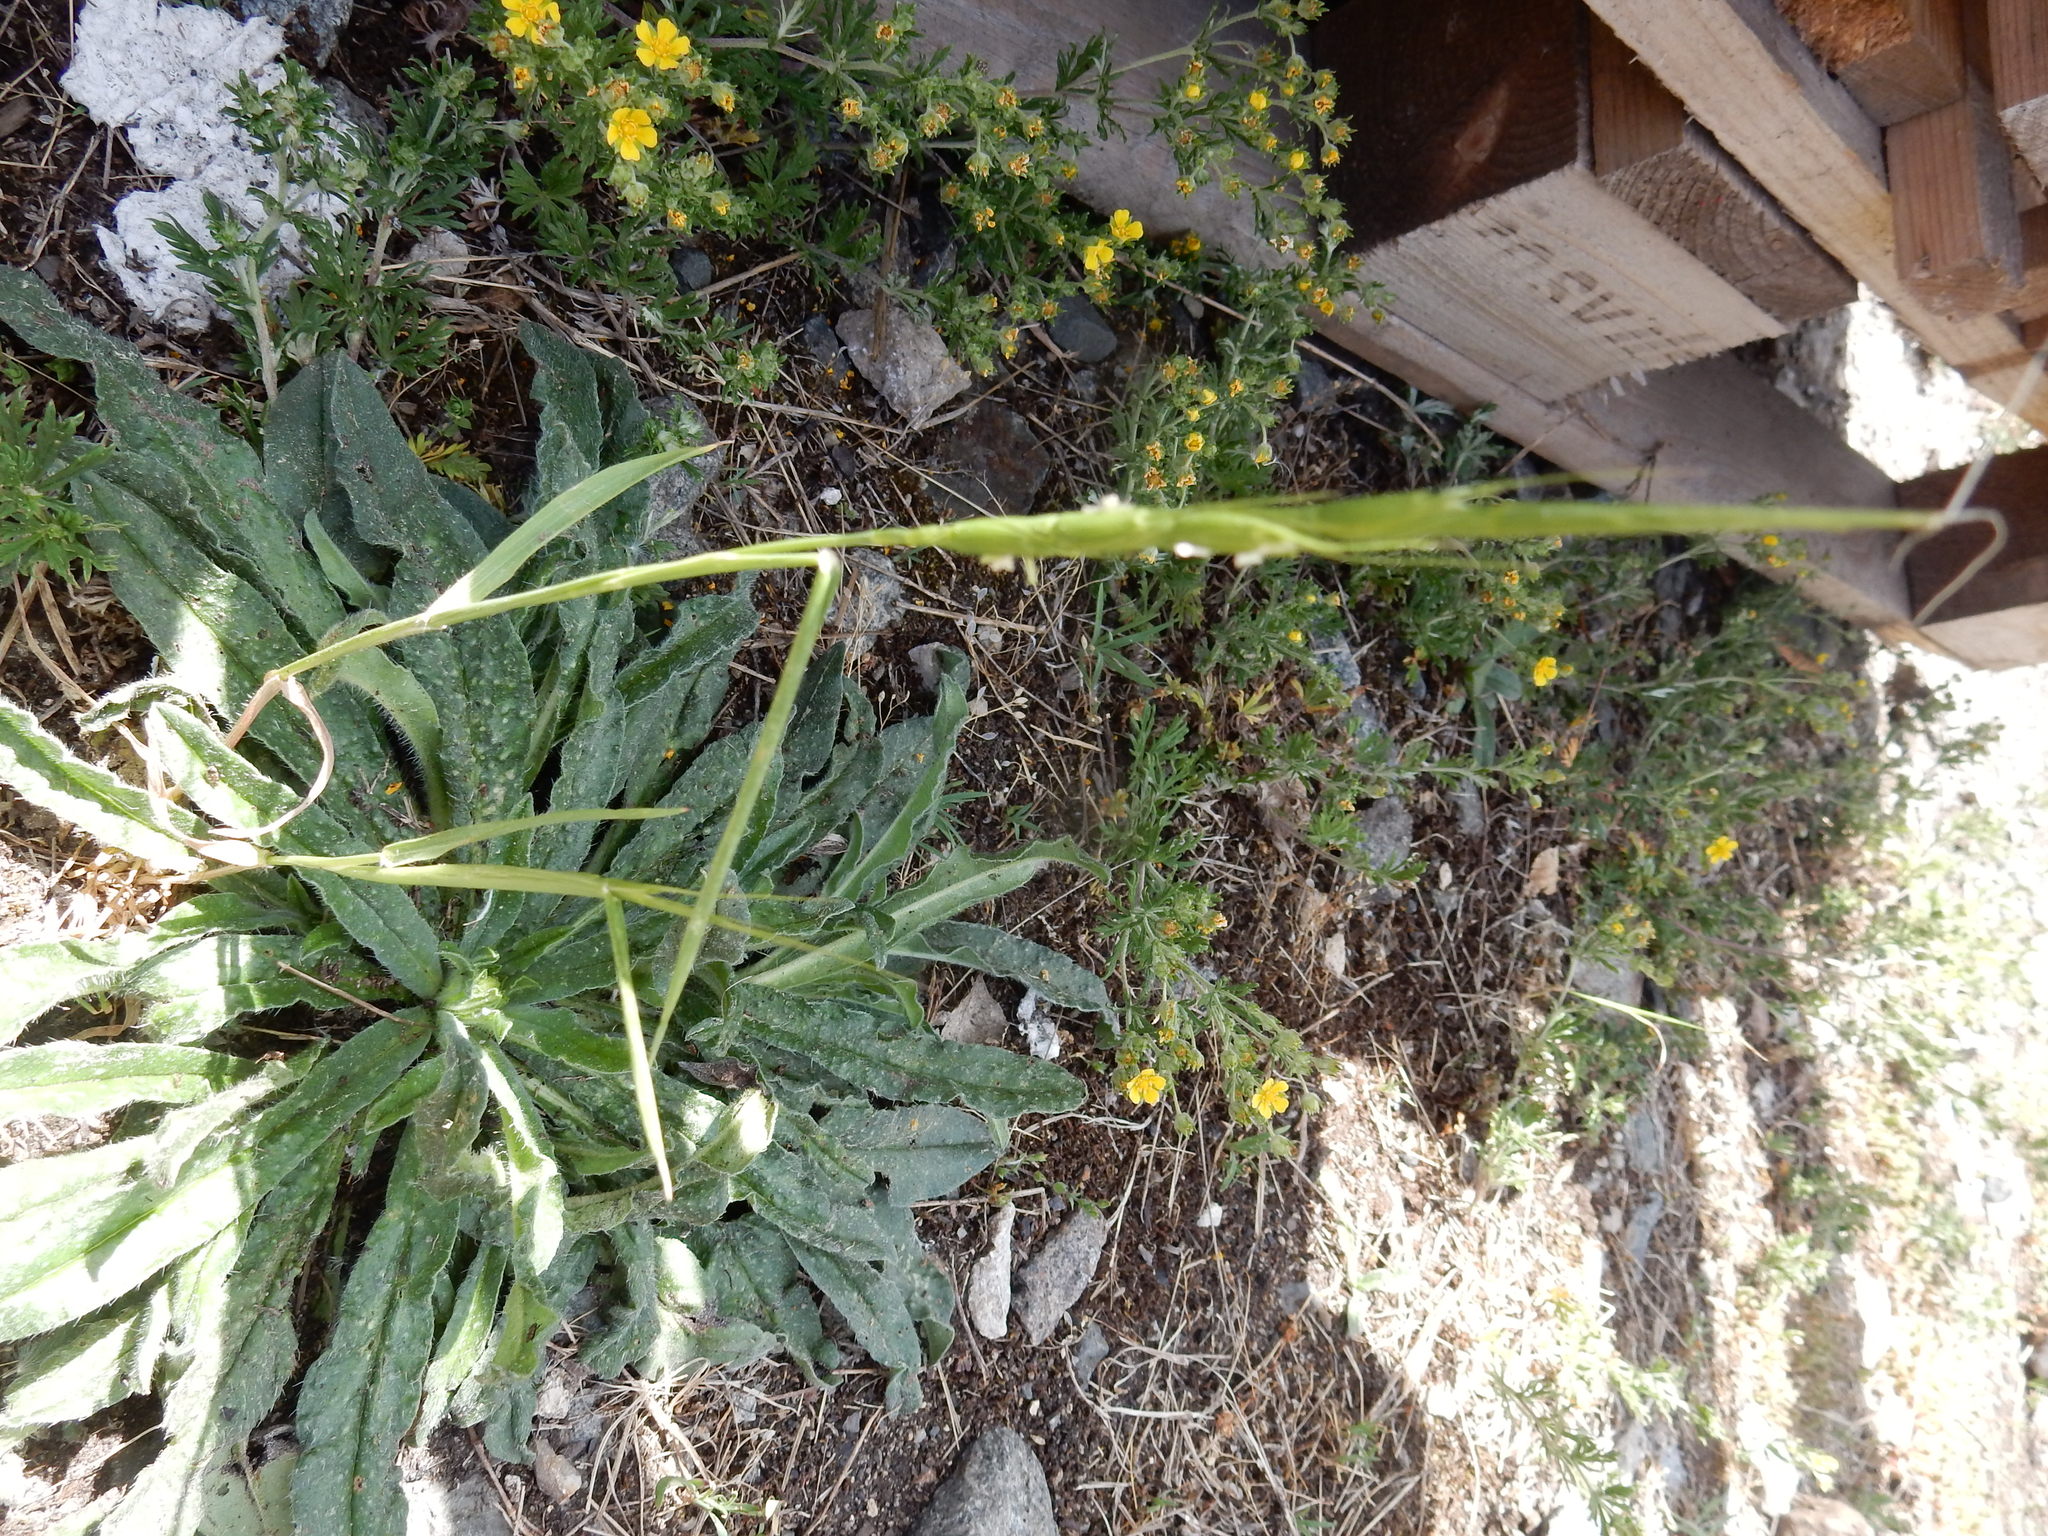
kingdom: Plantae
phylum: Tracheophyta
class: Liliopsida
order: Poales
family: Poaceae
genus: Aegilops
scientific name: Aegilops cylindrica
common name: Jointed goatgrass
